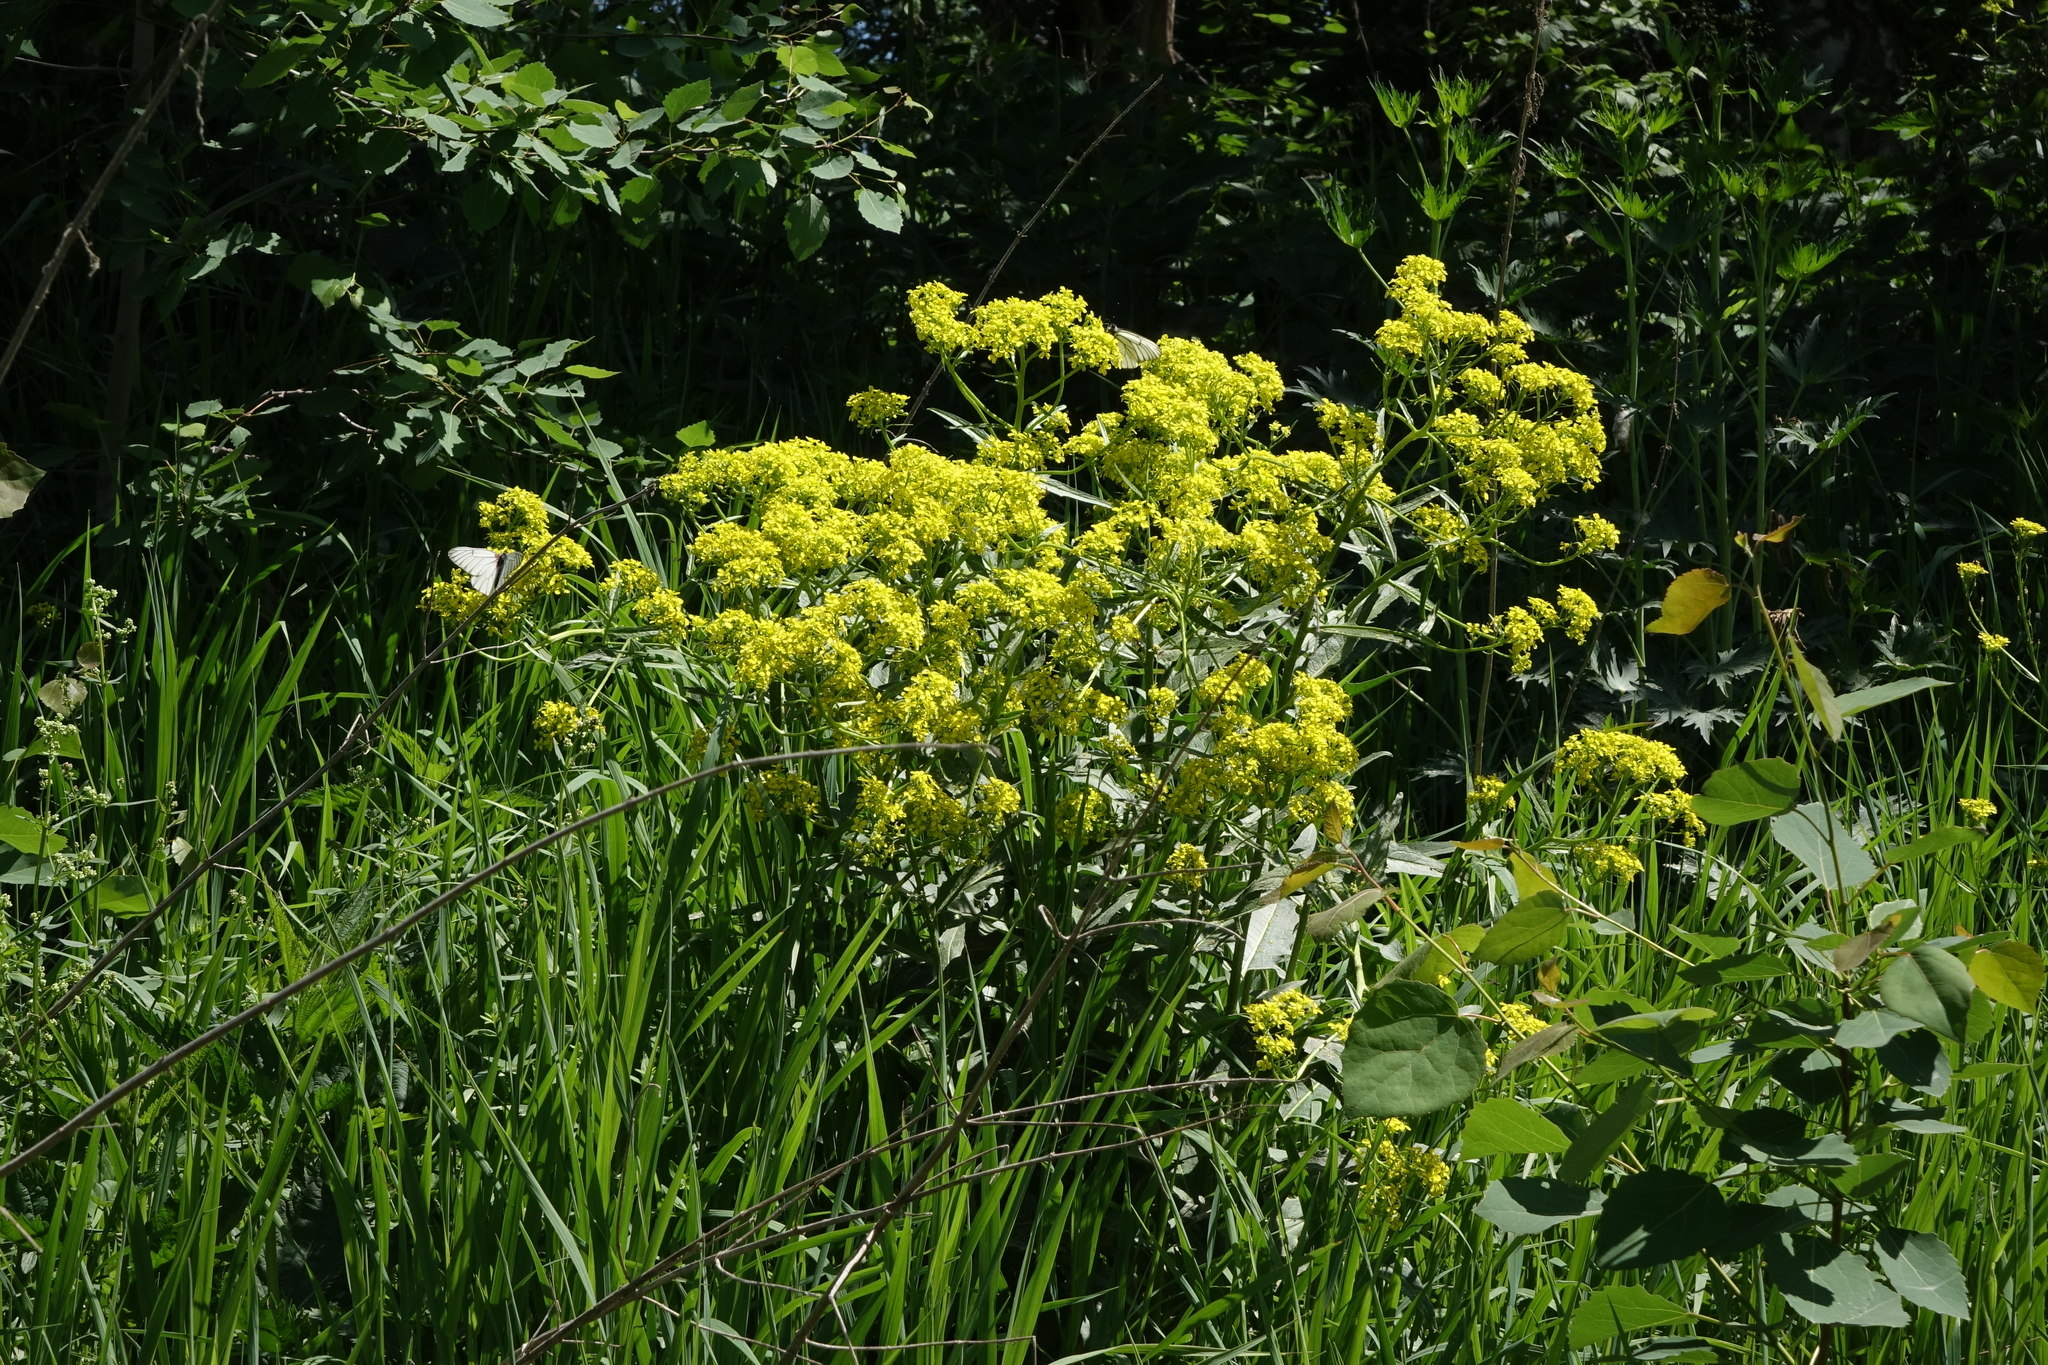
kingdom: Plantae
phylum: Tracheophyta
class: Magnoliopsida
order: Brassicales
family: Brassicaceae
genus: Bunias
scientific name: Bunias orientalis
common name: Warty-cabbage
